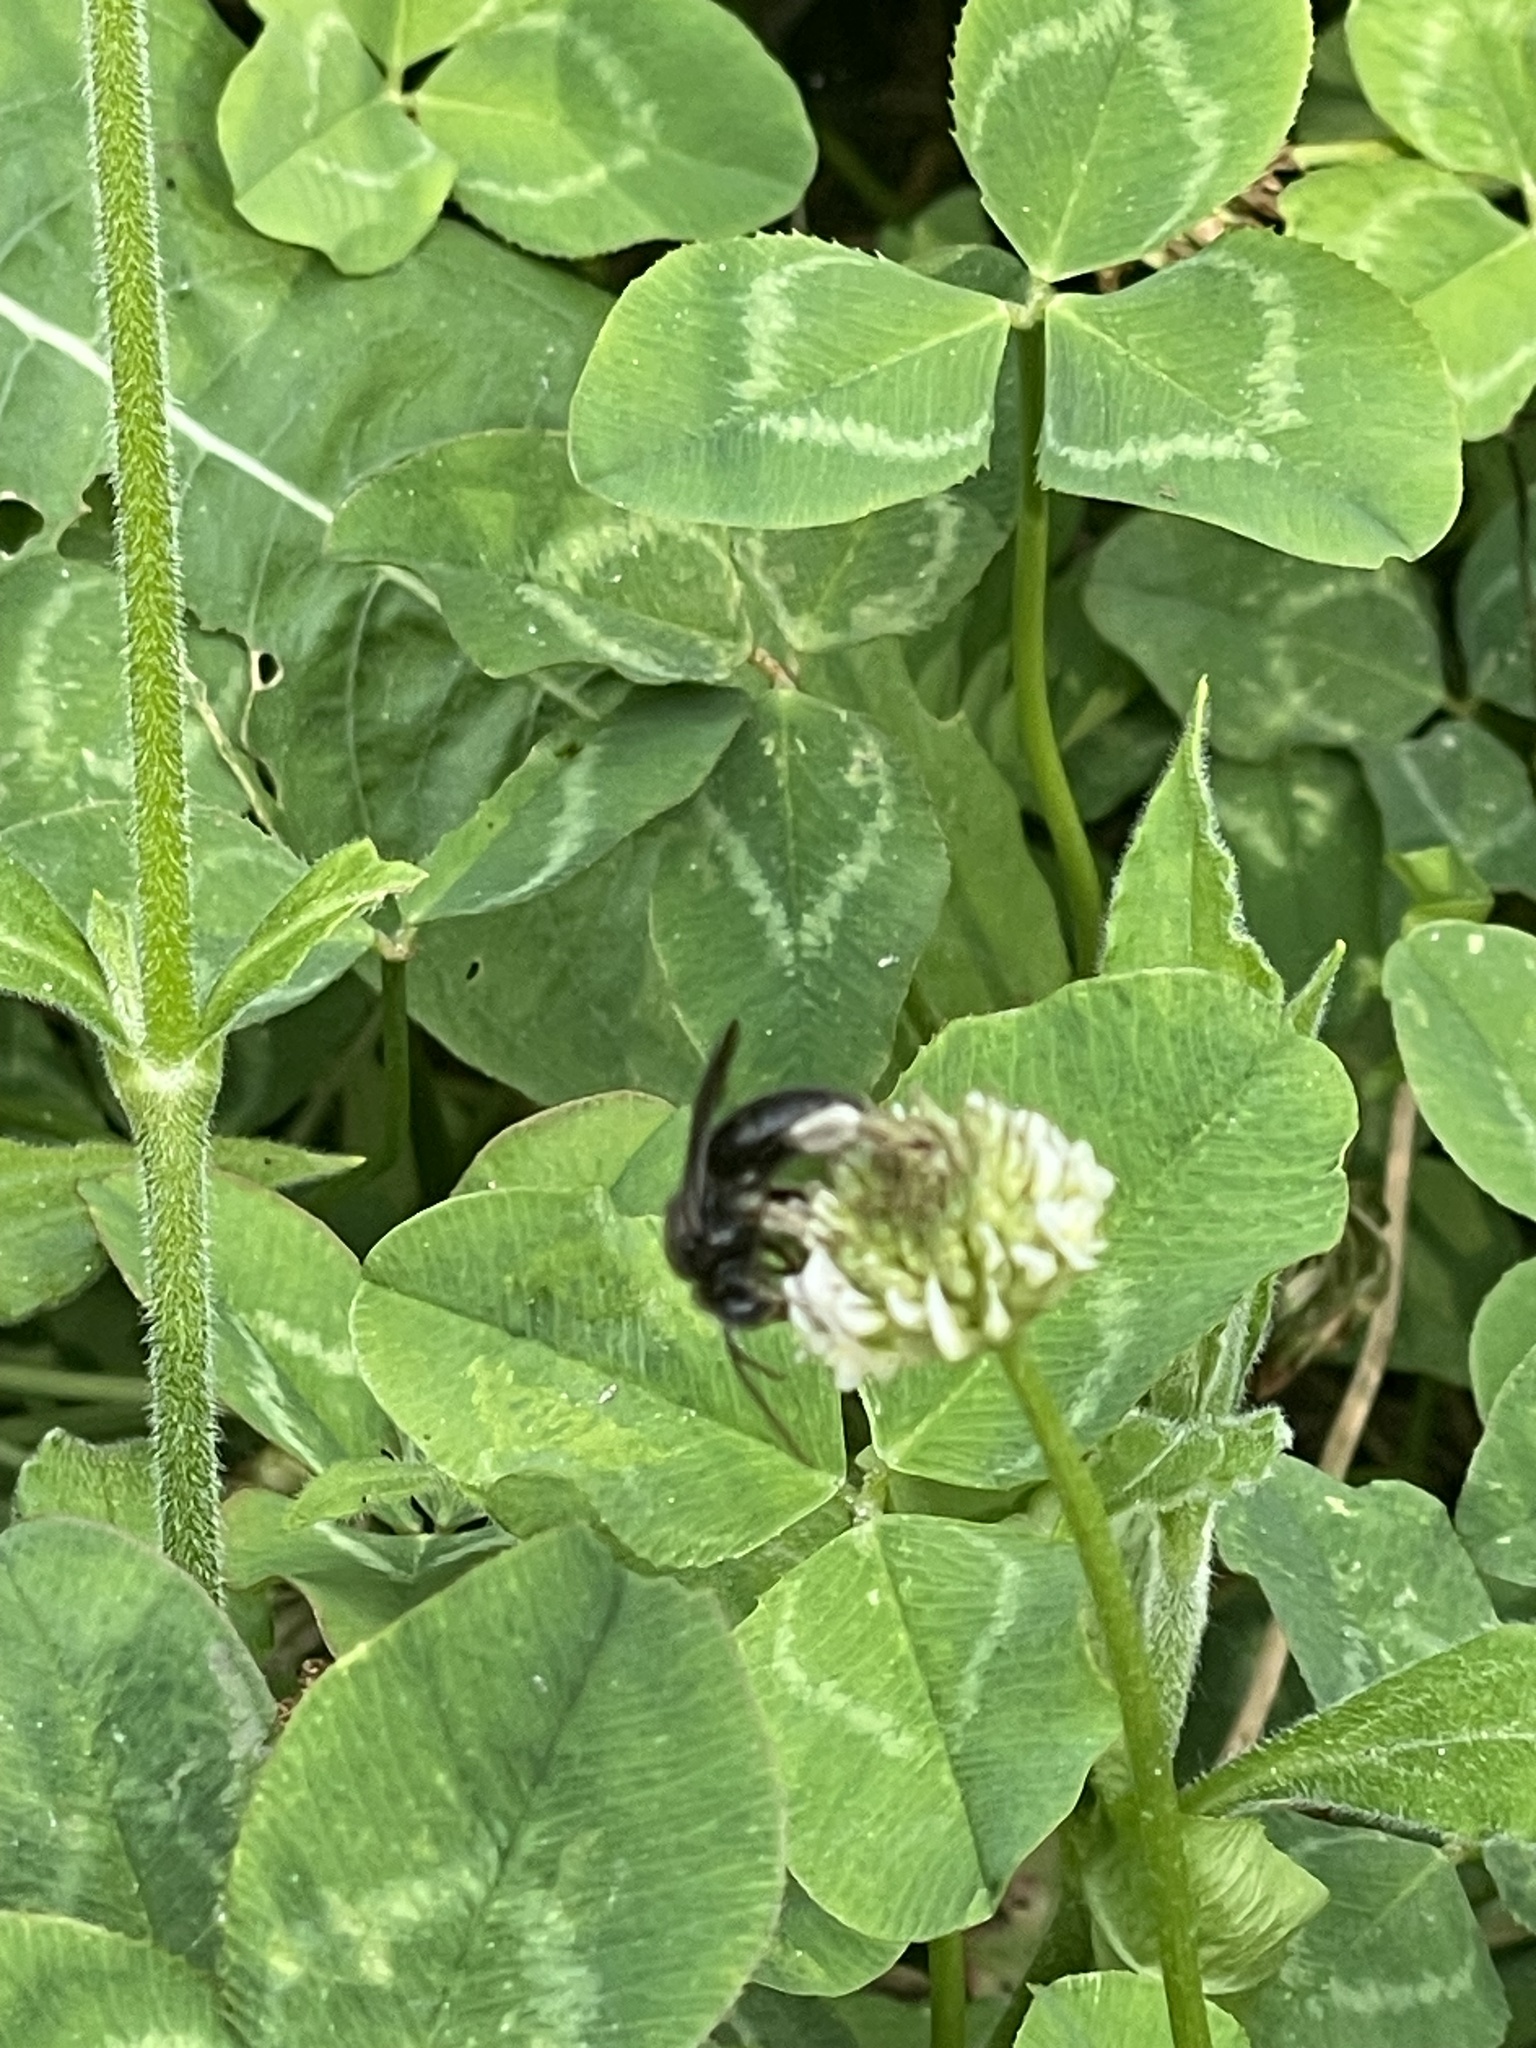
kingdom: Animalia
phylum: Arthropoda
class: Insecta
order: Hymenoptera
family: Apidae
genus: Melissodes
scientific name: Melissodes bimaculatus
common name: Two-spotted long-horned bee
